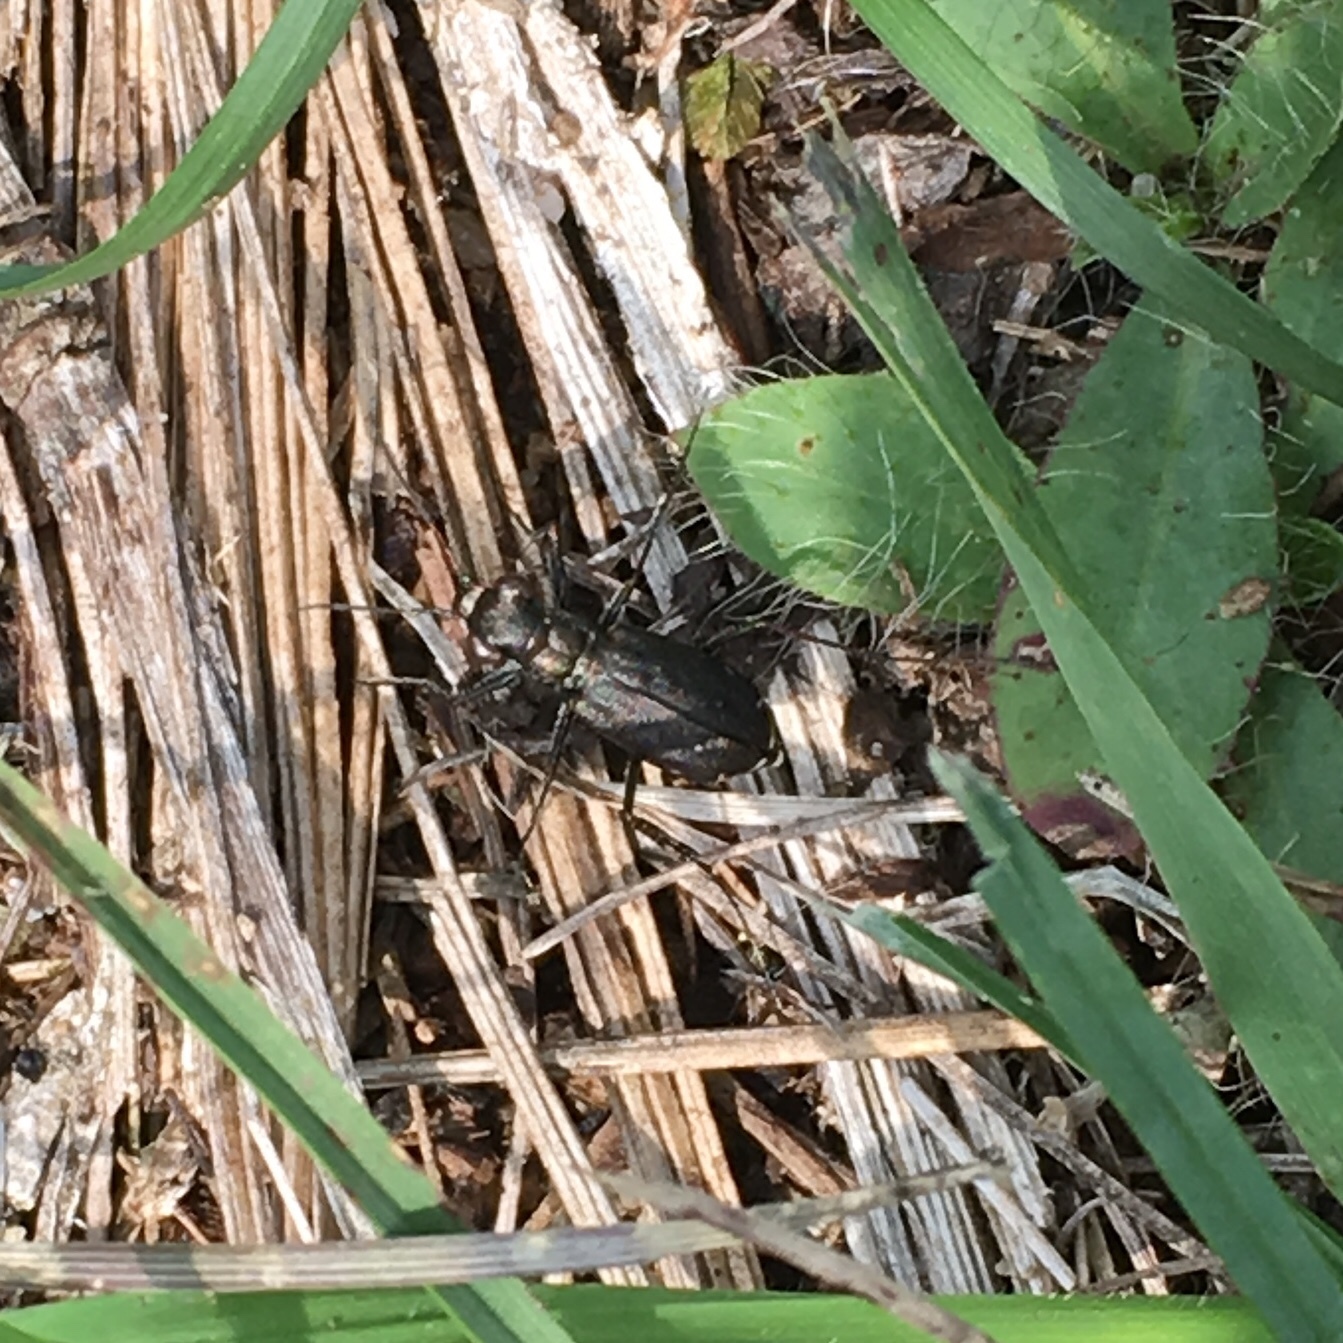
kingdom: Animalia
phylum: Arthropoda
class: Insecta
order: Coleoptera
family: Carabidae
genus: Cicindela
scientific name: Cicindela punctulata
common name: Punctured tiger beetle
